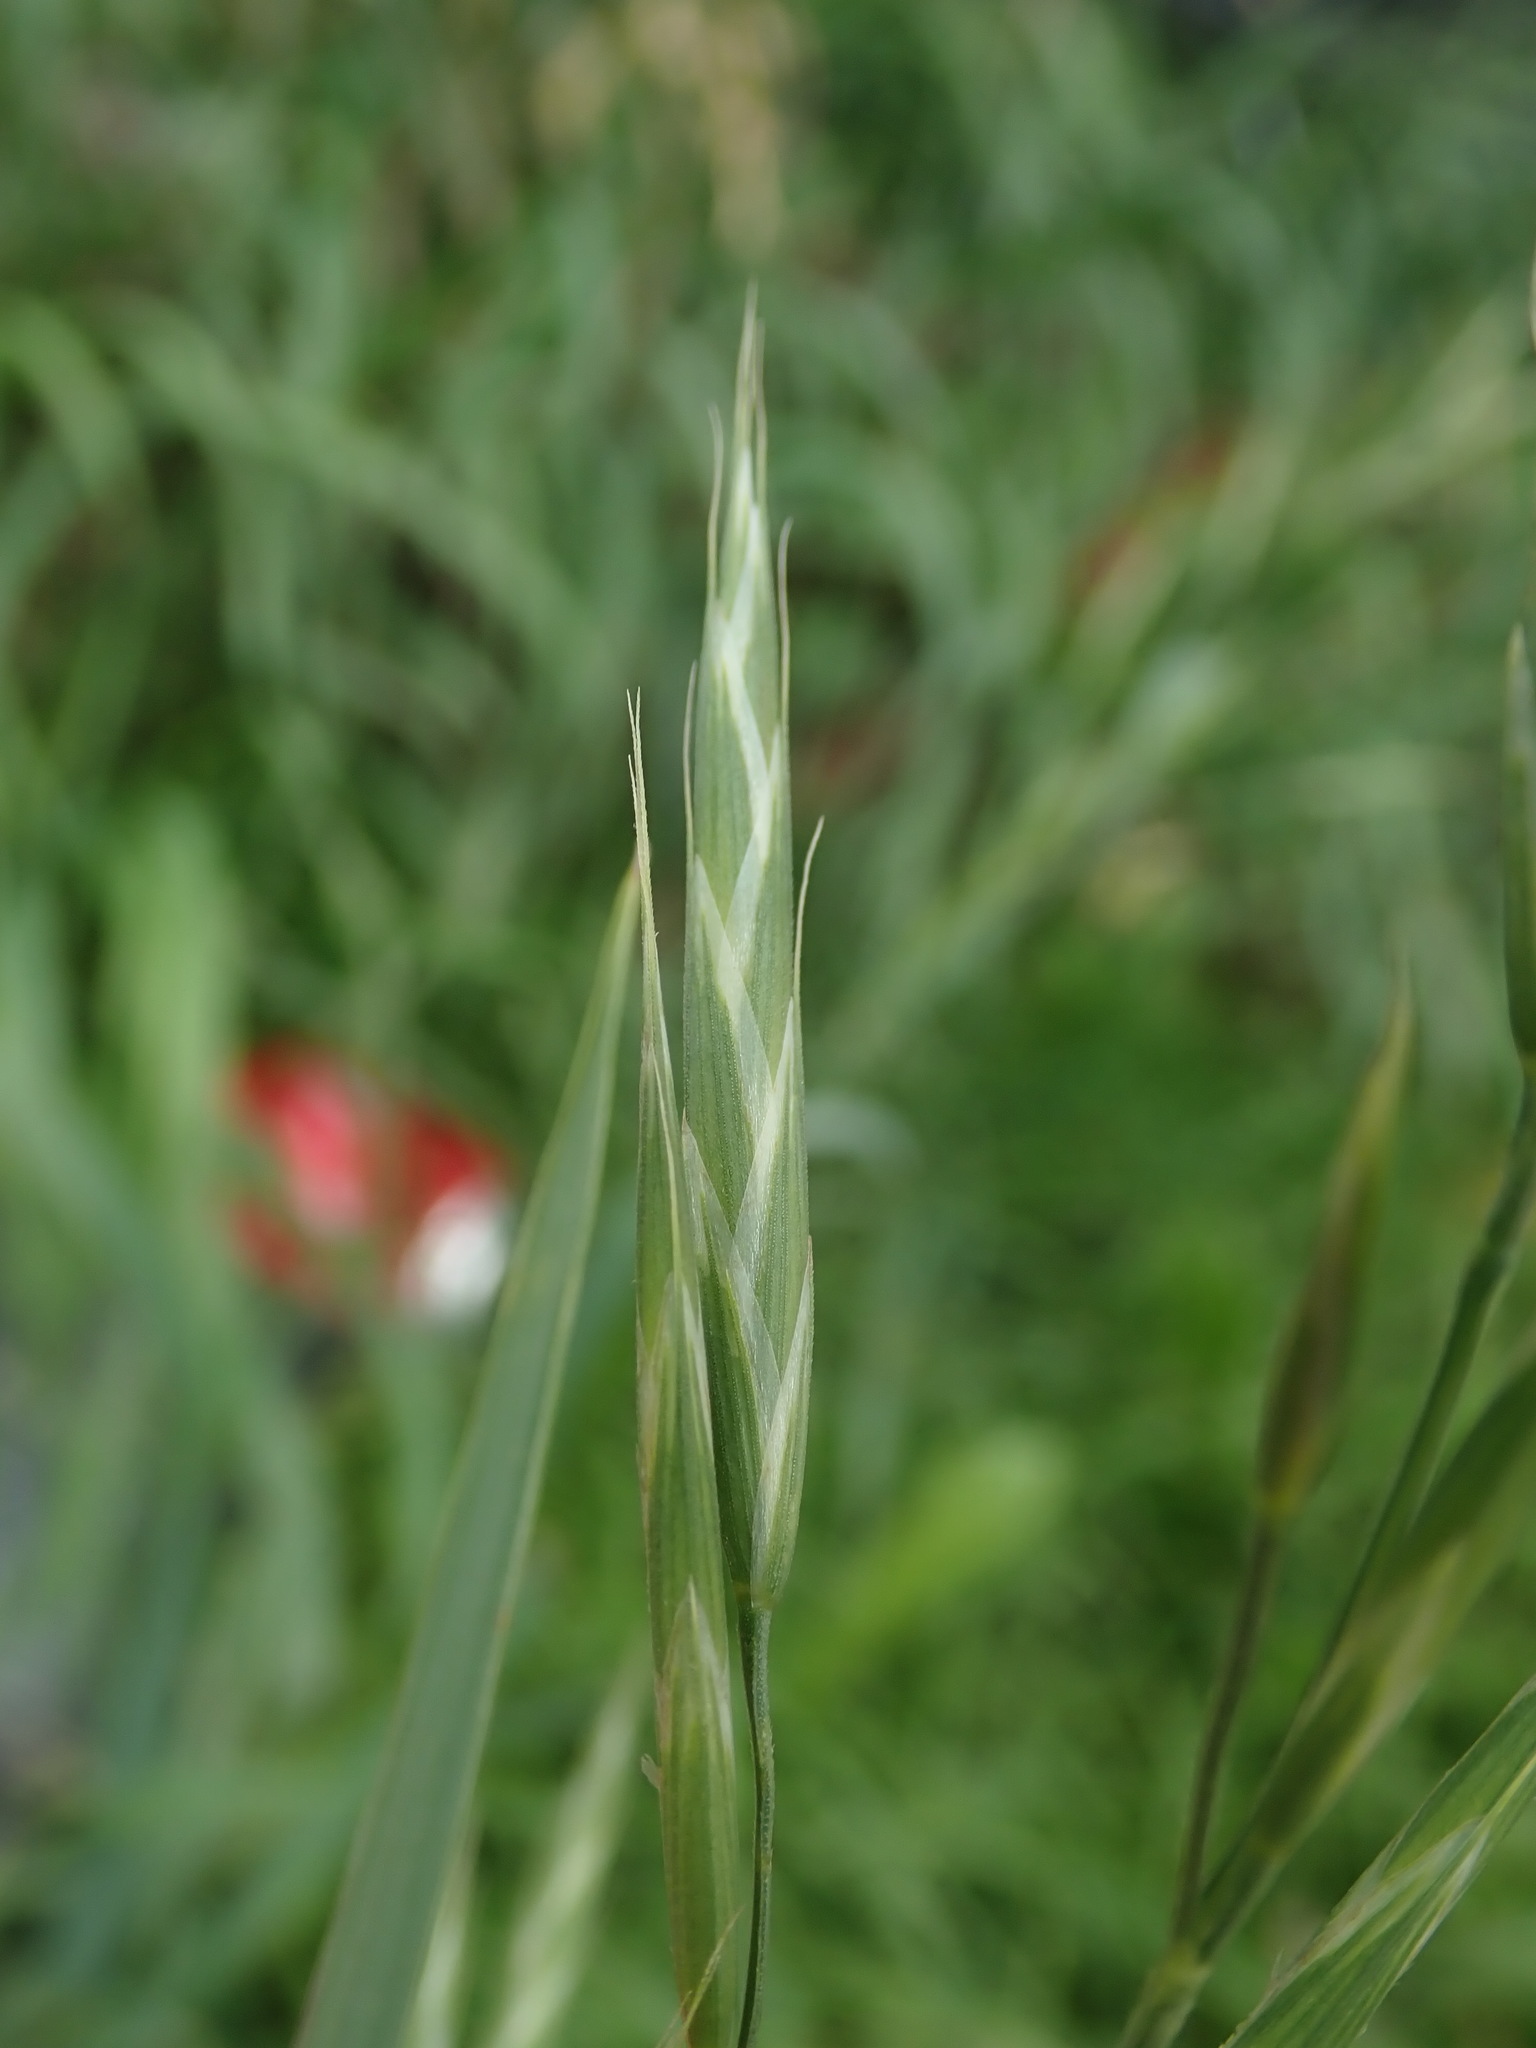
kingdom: Plantae
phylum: Tracheophyta
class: Liliopsida
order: Poales
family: Poaceae
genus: Bromus
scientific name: Bromus carinatus
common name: Mountain brome
